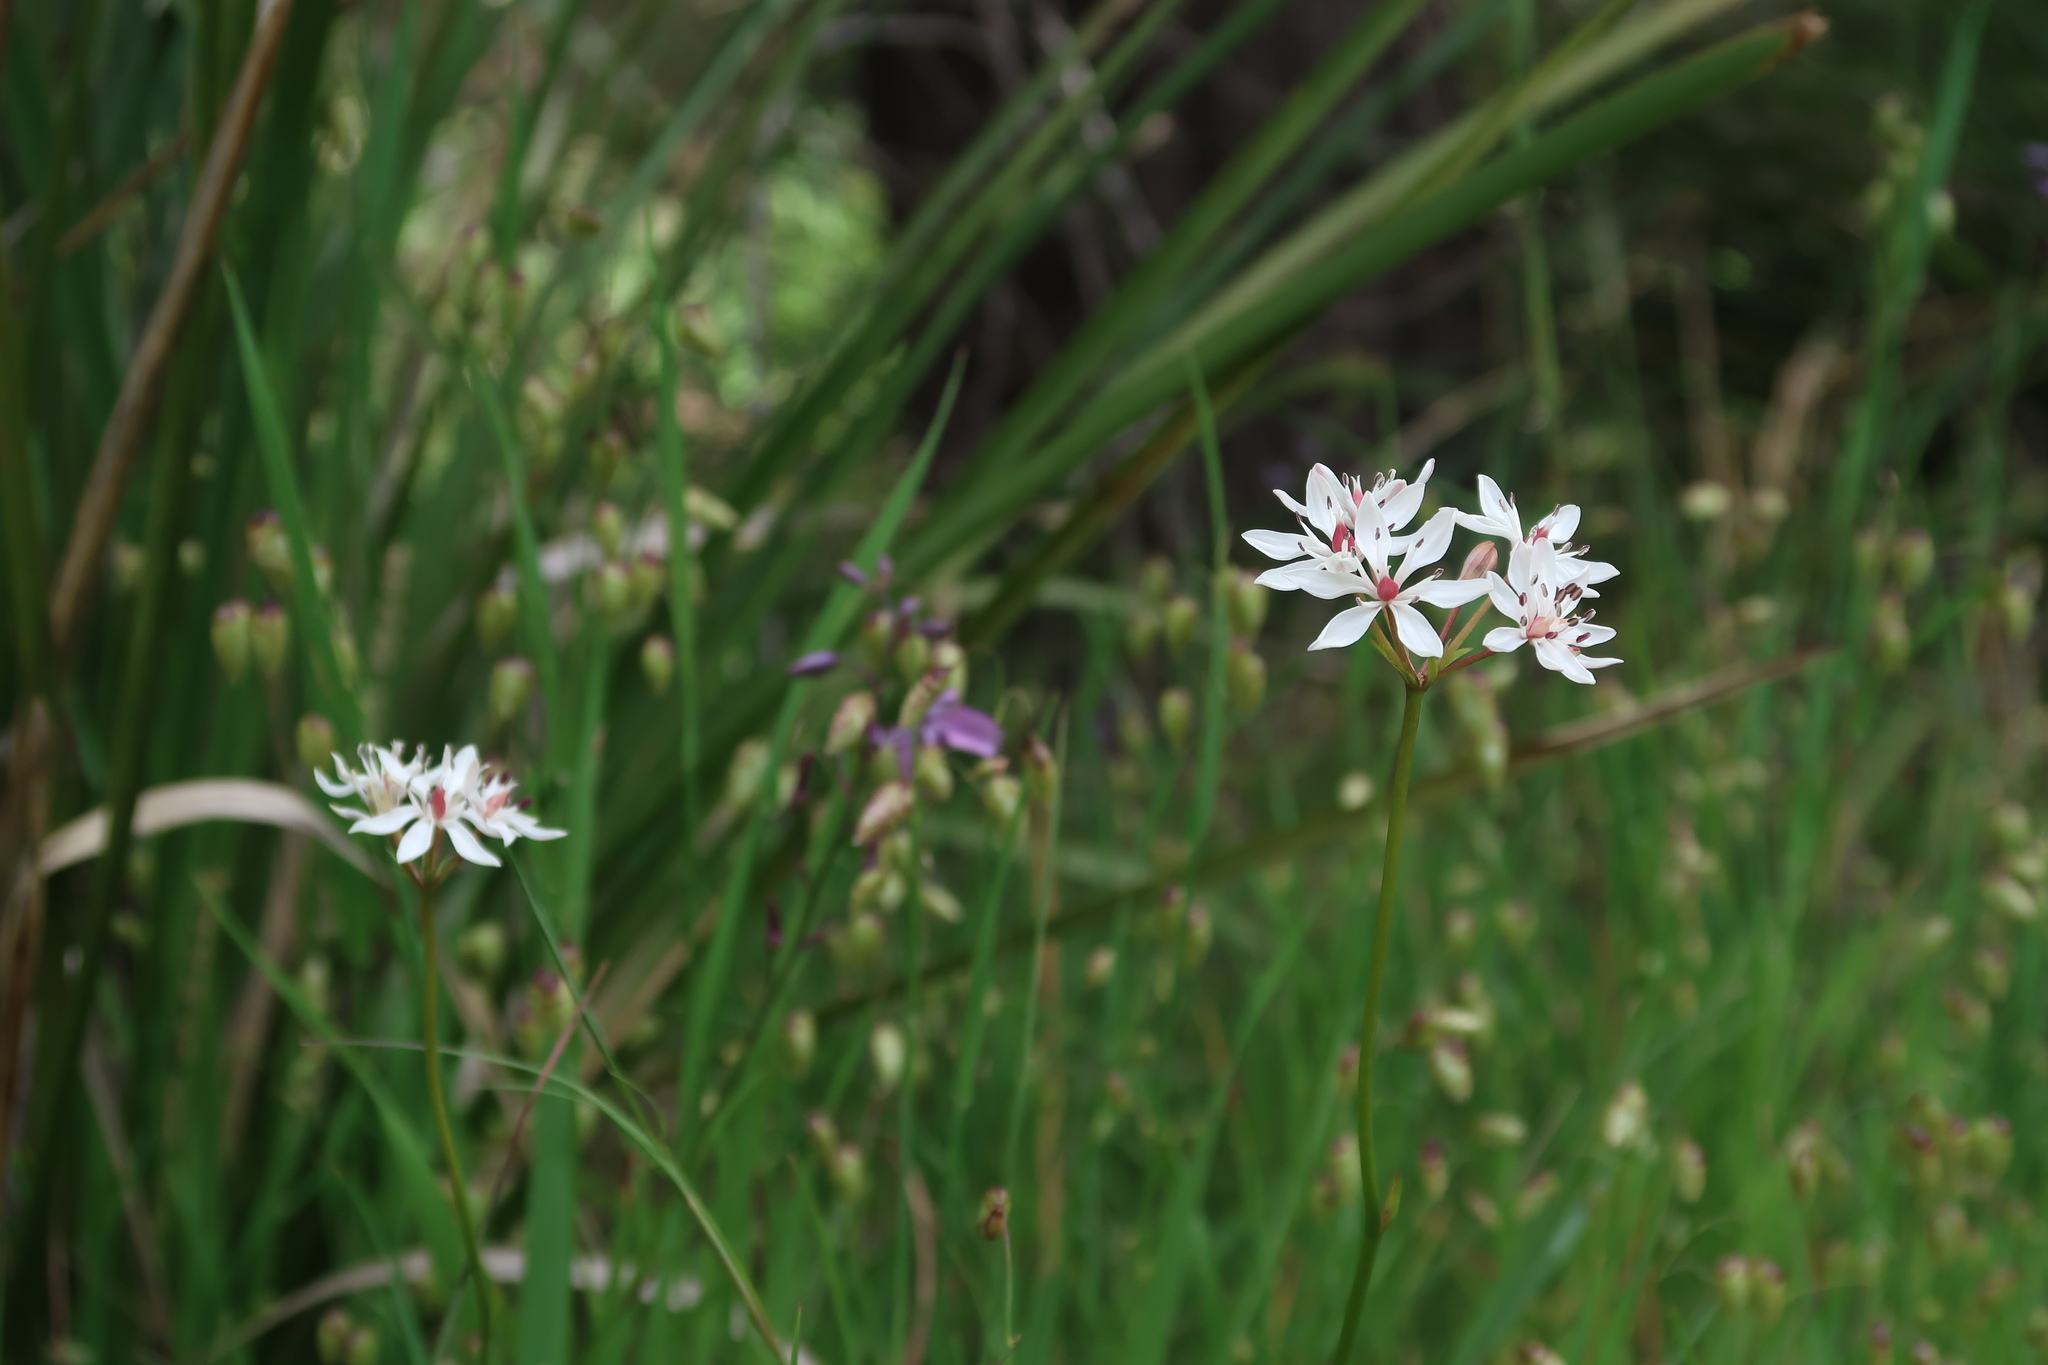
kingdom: Plantae
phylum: Tracheophyta
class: Liliopsida
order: Liliales
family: Colchicaceae
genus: Burchardia
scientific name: Burchardia umbellata
